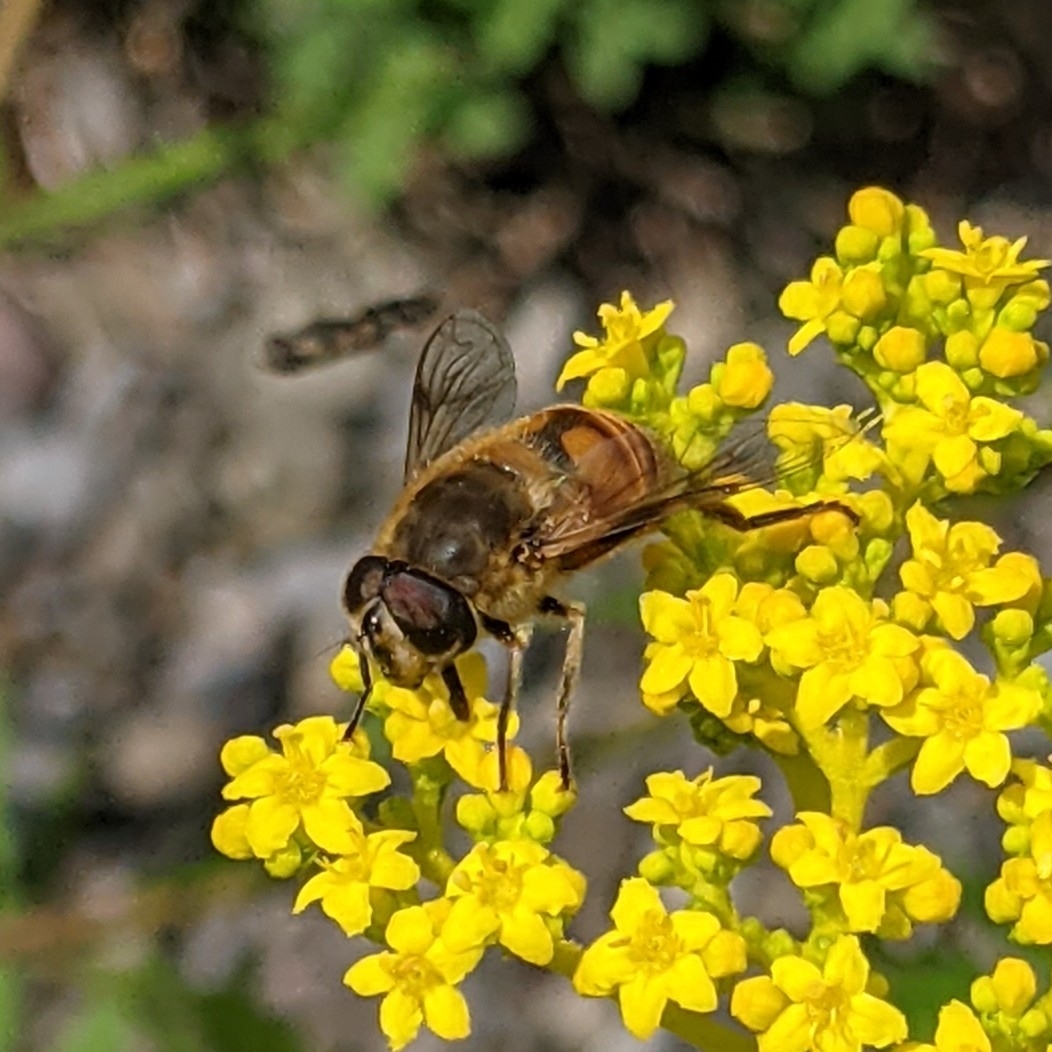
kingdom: Animalia
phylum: Arthropoda
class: Insecta
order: Diptera
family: Syrphidae
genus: Eristalis
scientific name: Eristalis tenax
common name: Drone fly
